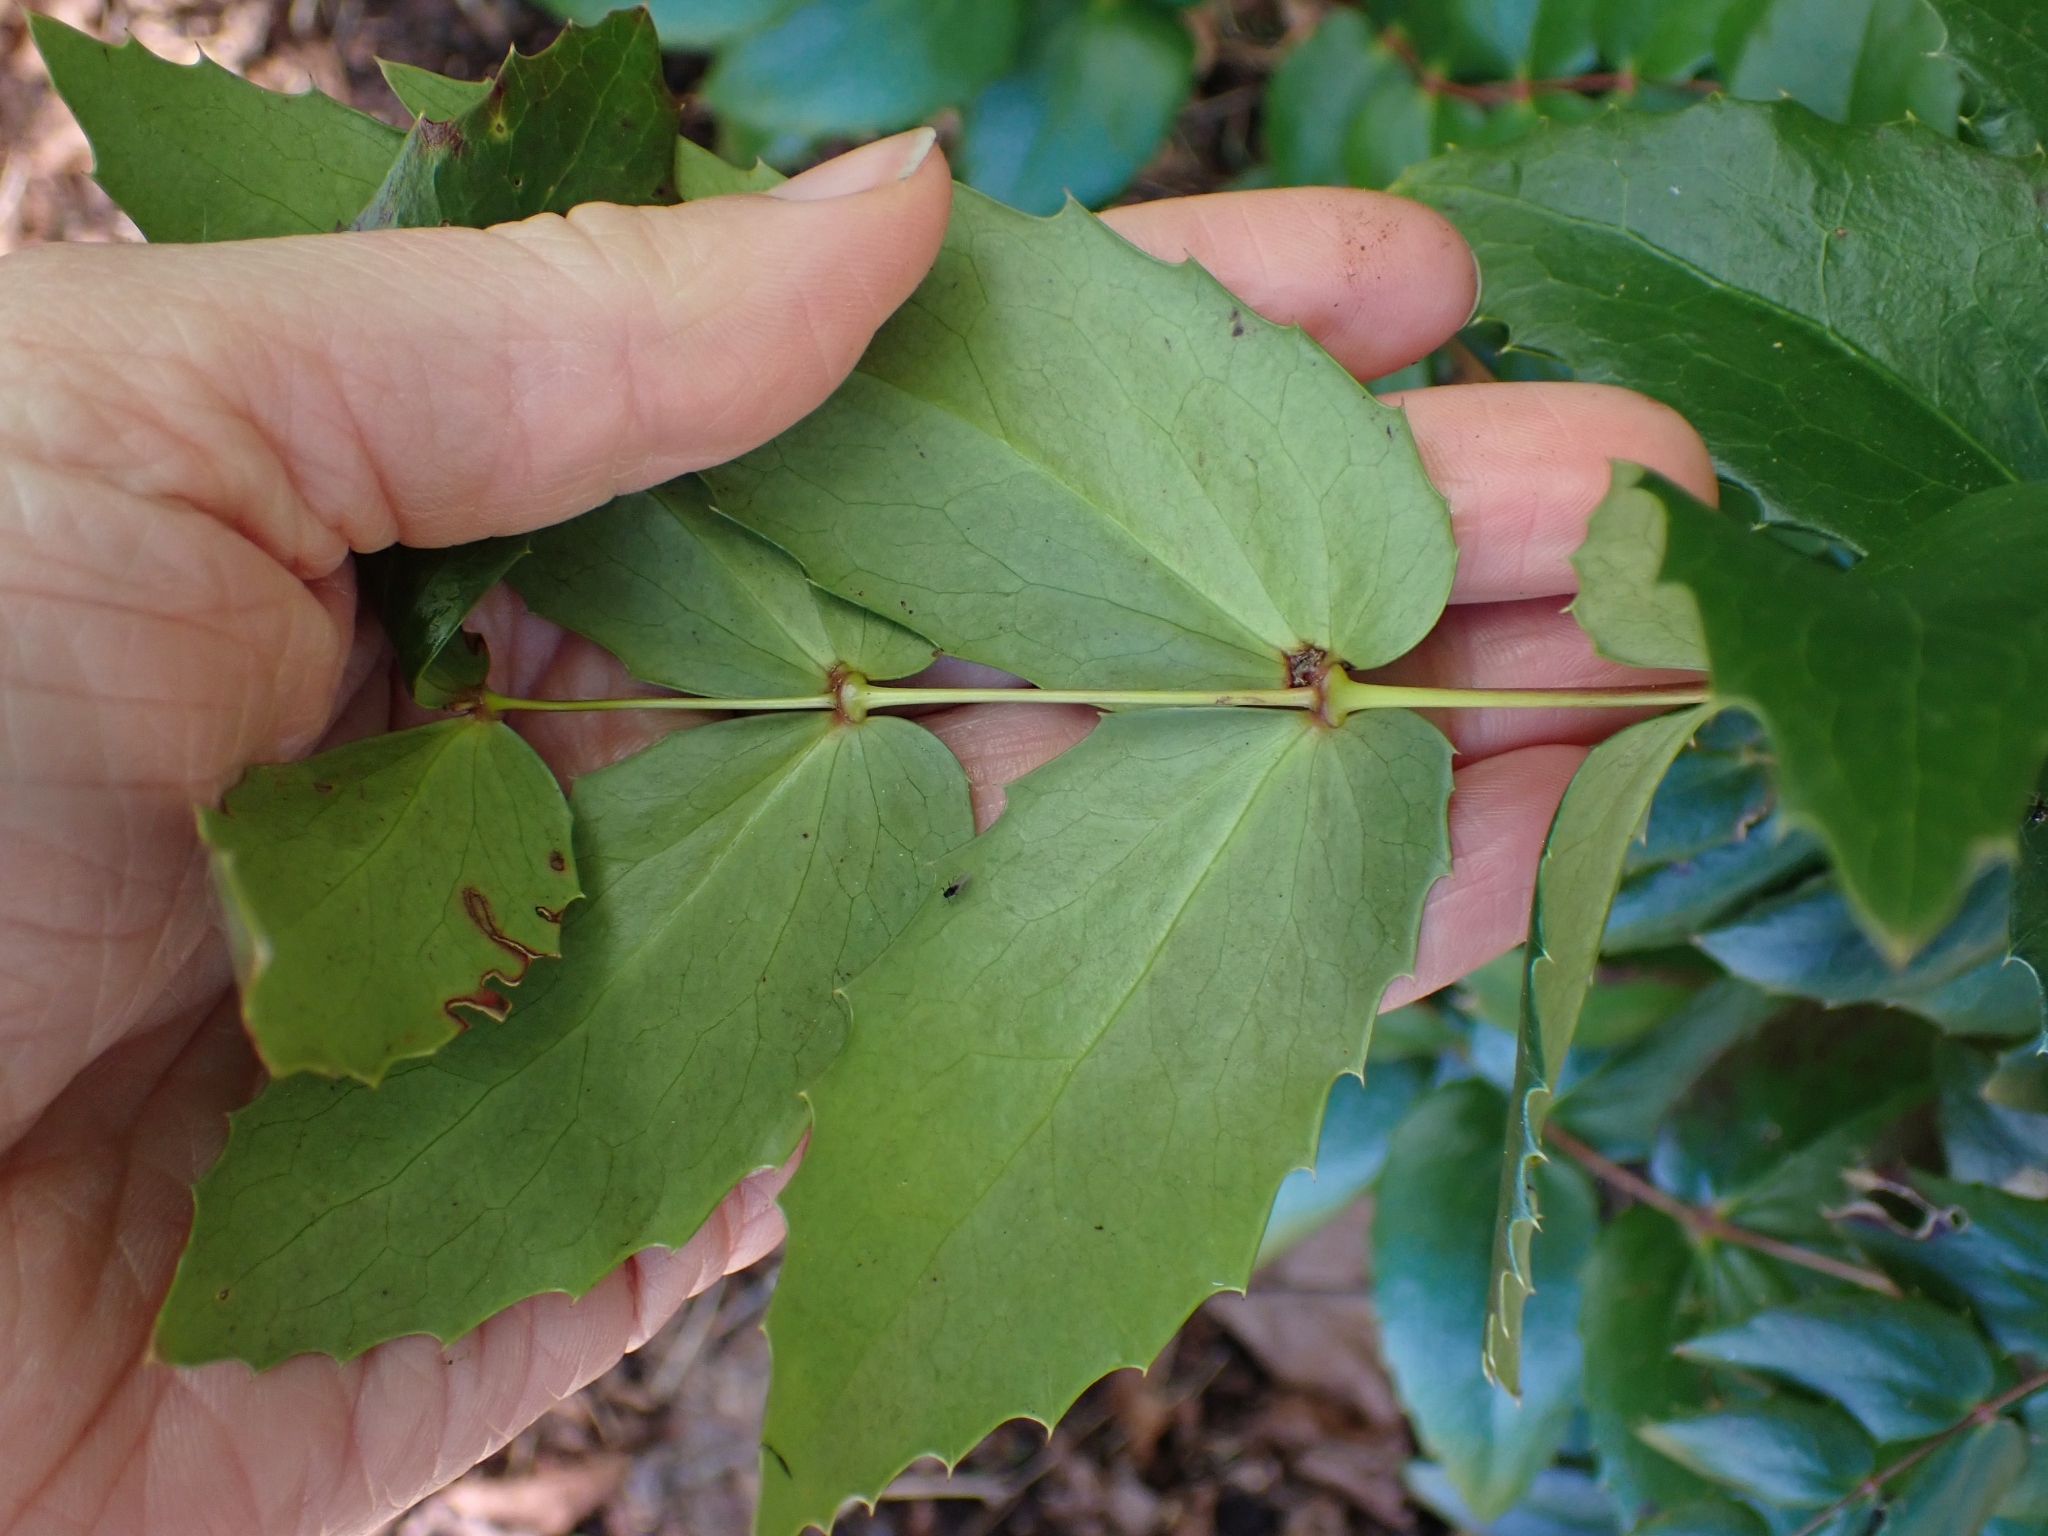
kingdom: Plantae
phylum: Tracheophyta
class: Magnoliopsida
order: Ranunculales
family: Berberidaceae
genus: Mahonia
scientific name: Mahonia nervosa
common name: Cascade oregon-grape
